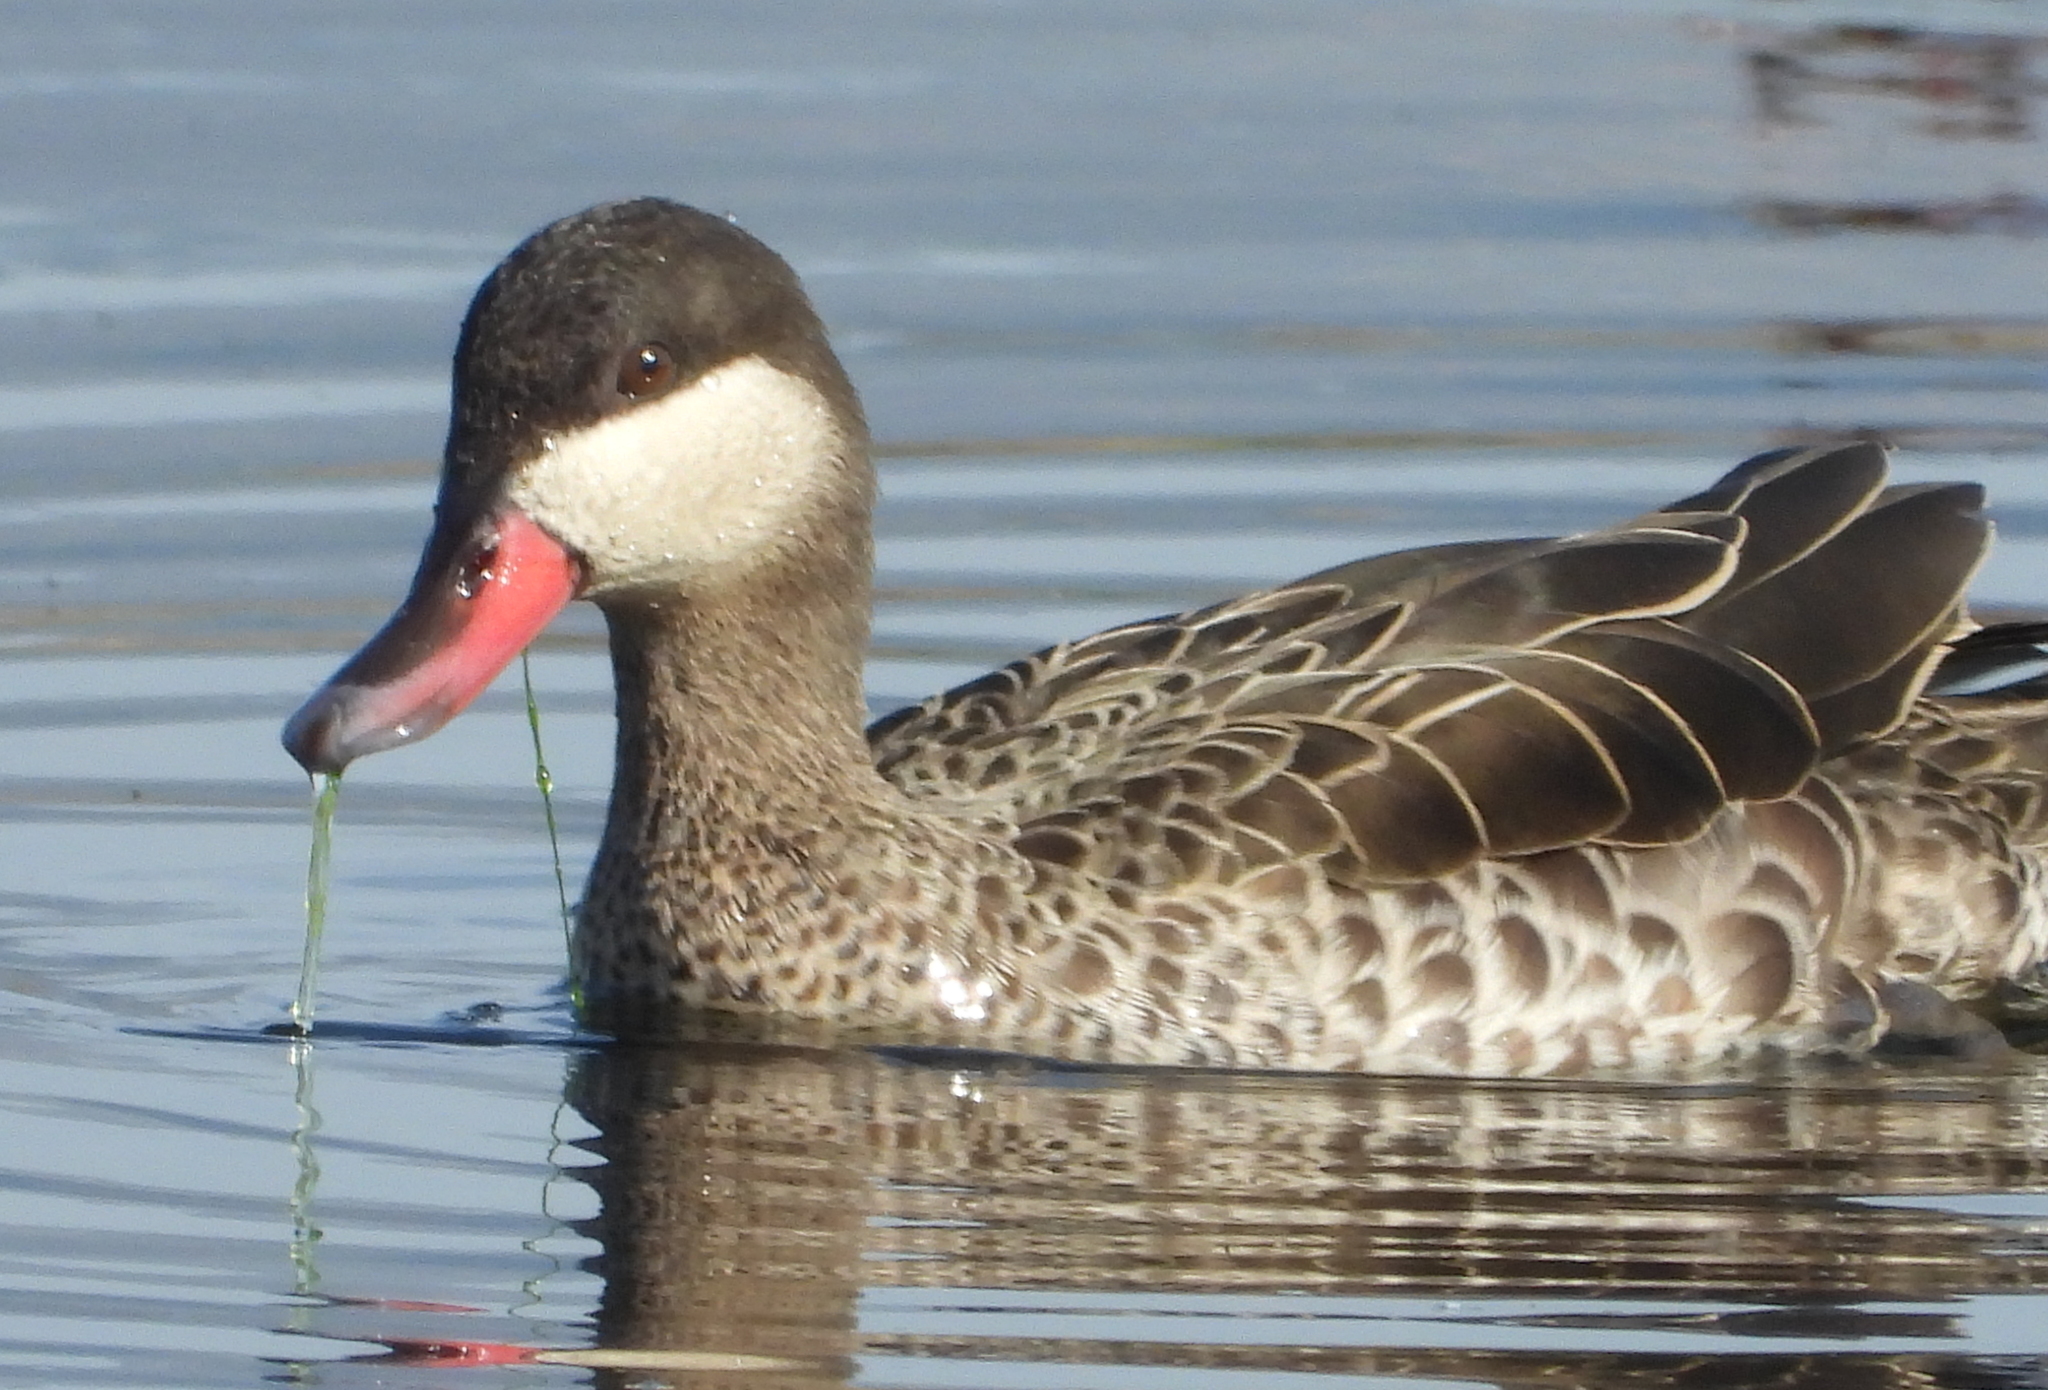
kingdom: Animalia
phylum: Chordata
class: Aves
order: Anseriformes
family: Anatidae
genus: Anas
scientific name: Anas erythrorhyncha
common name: Red-billed teal
